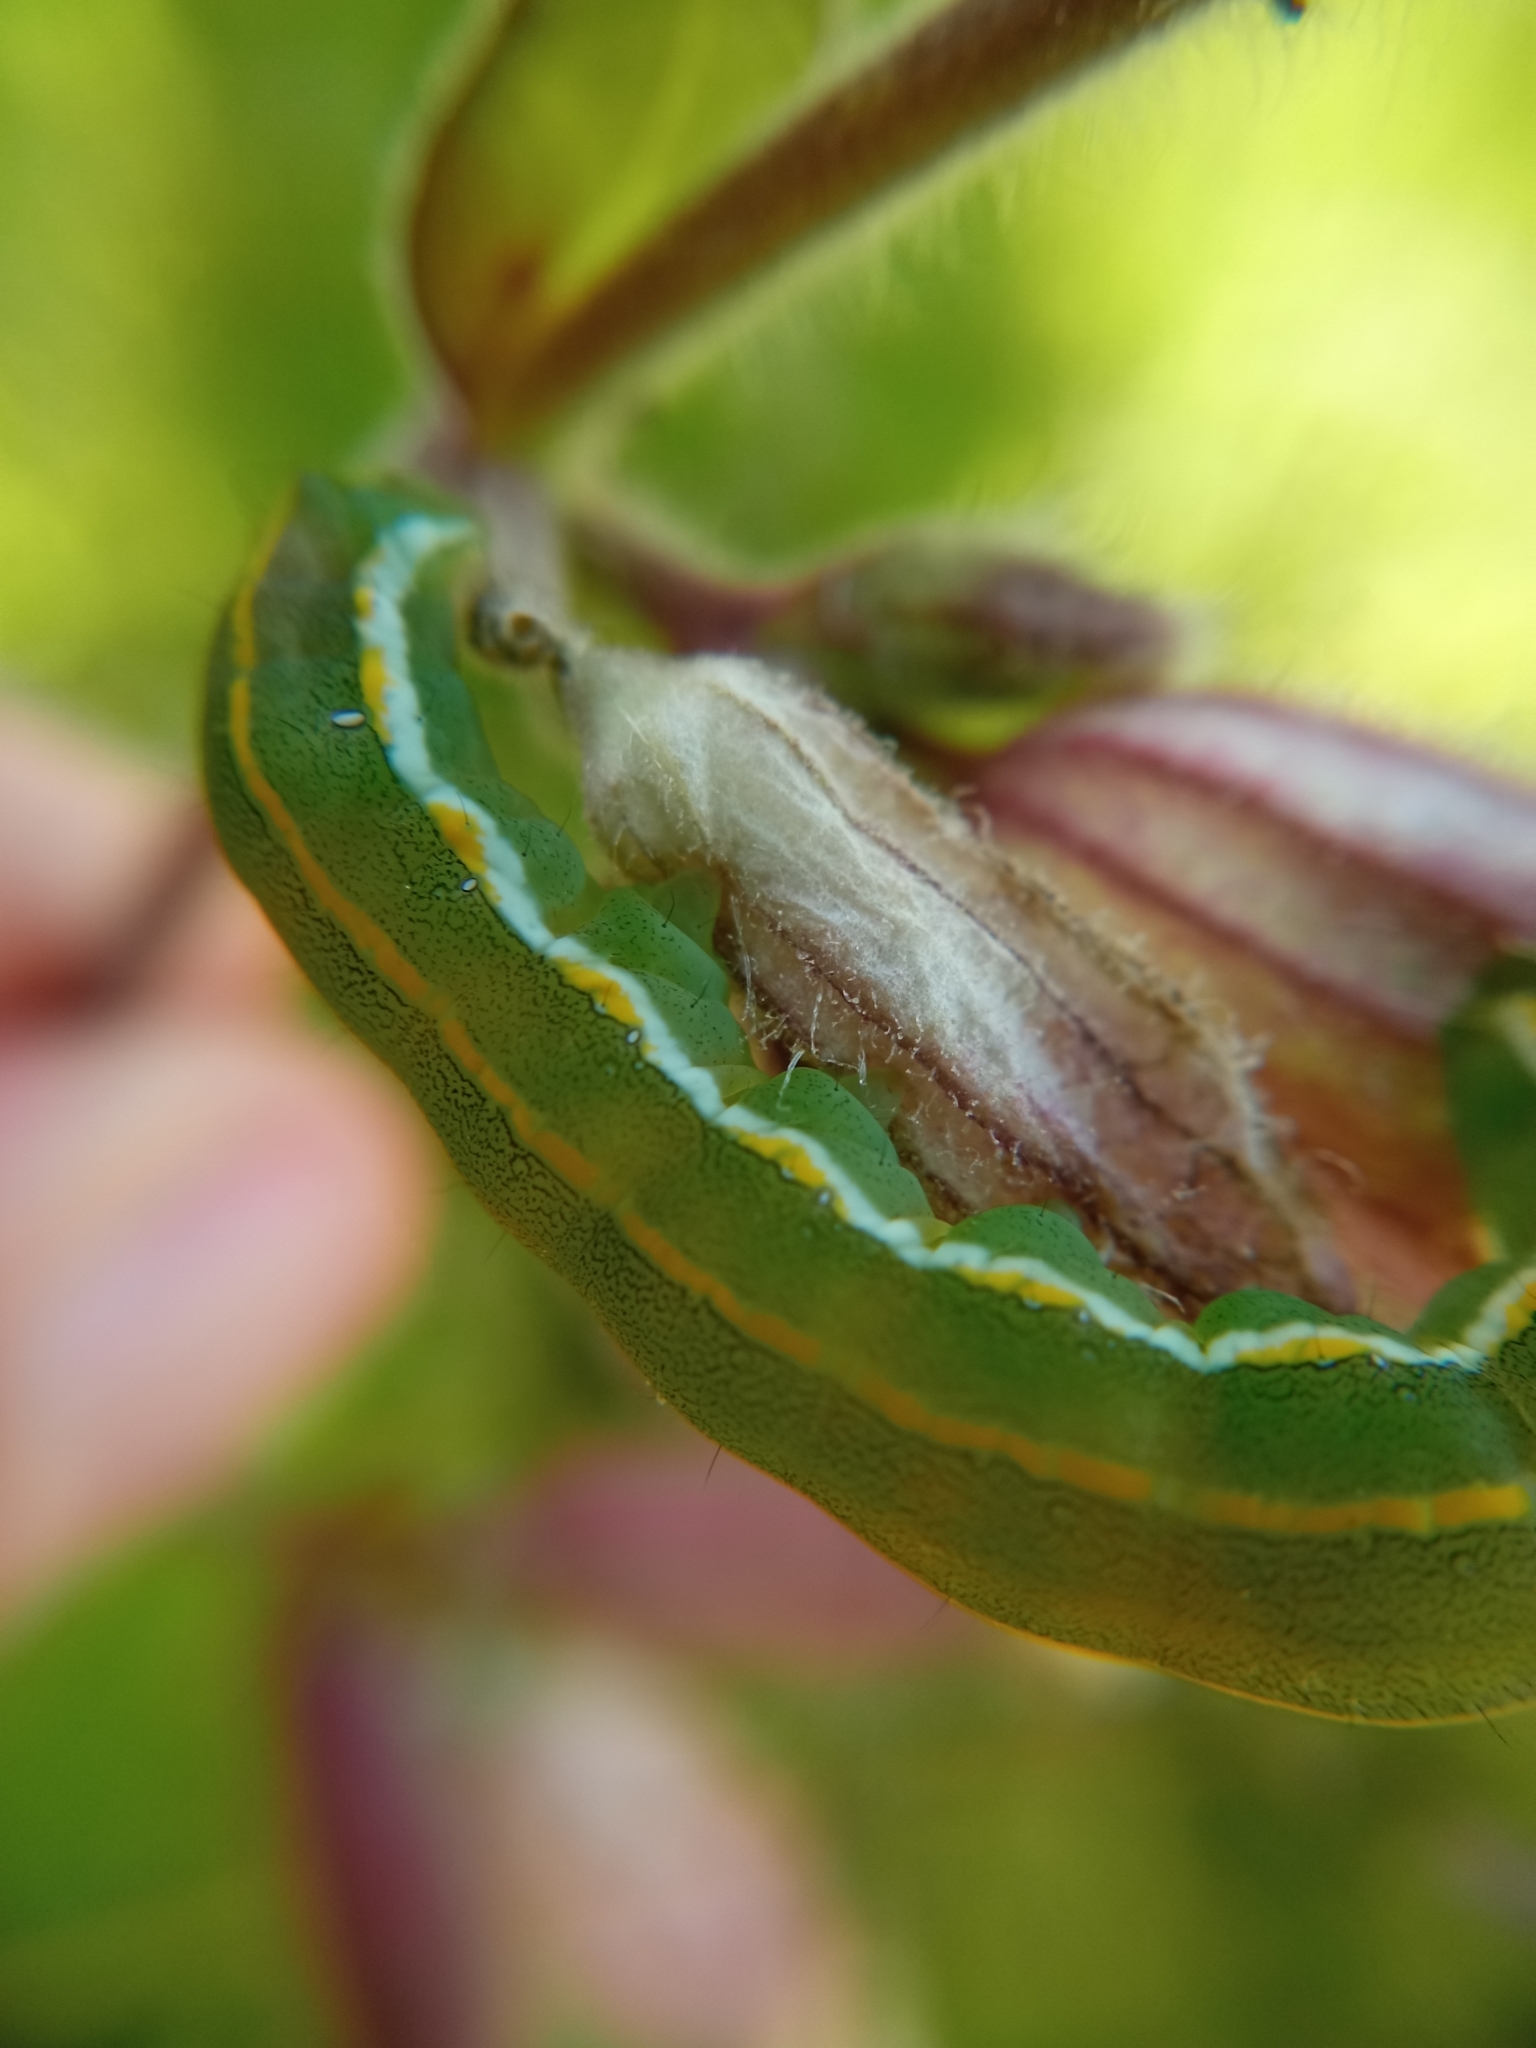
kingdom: Animalia
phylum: Arthropoda
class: Insecta
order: Lepidoptera
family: Noctuidae
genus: Xylena
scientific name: Xylena exsoleta
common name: Sword-grass
